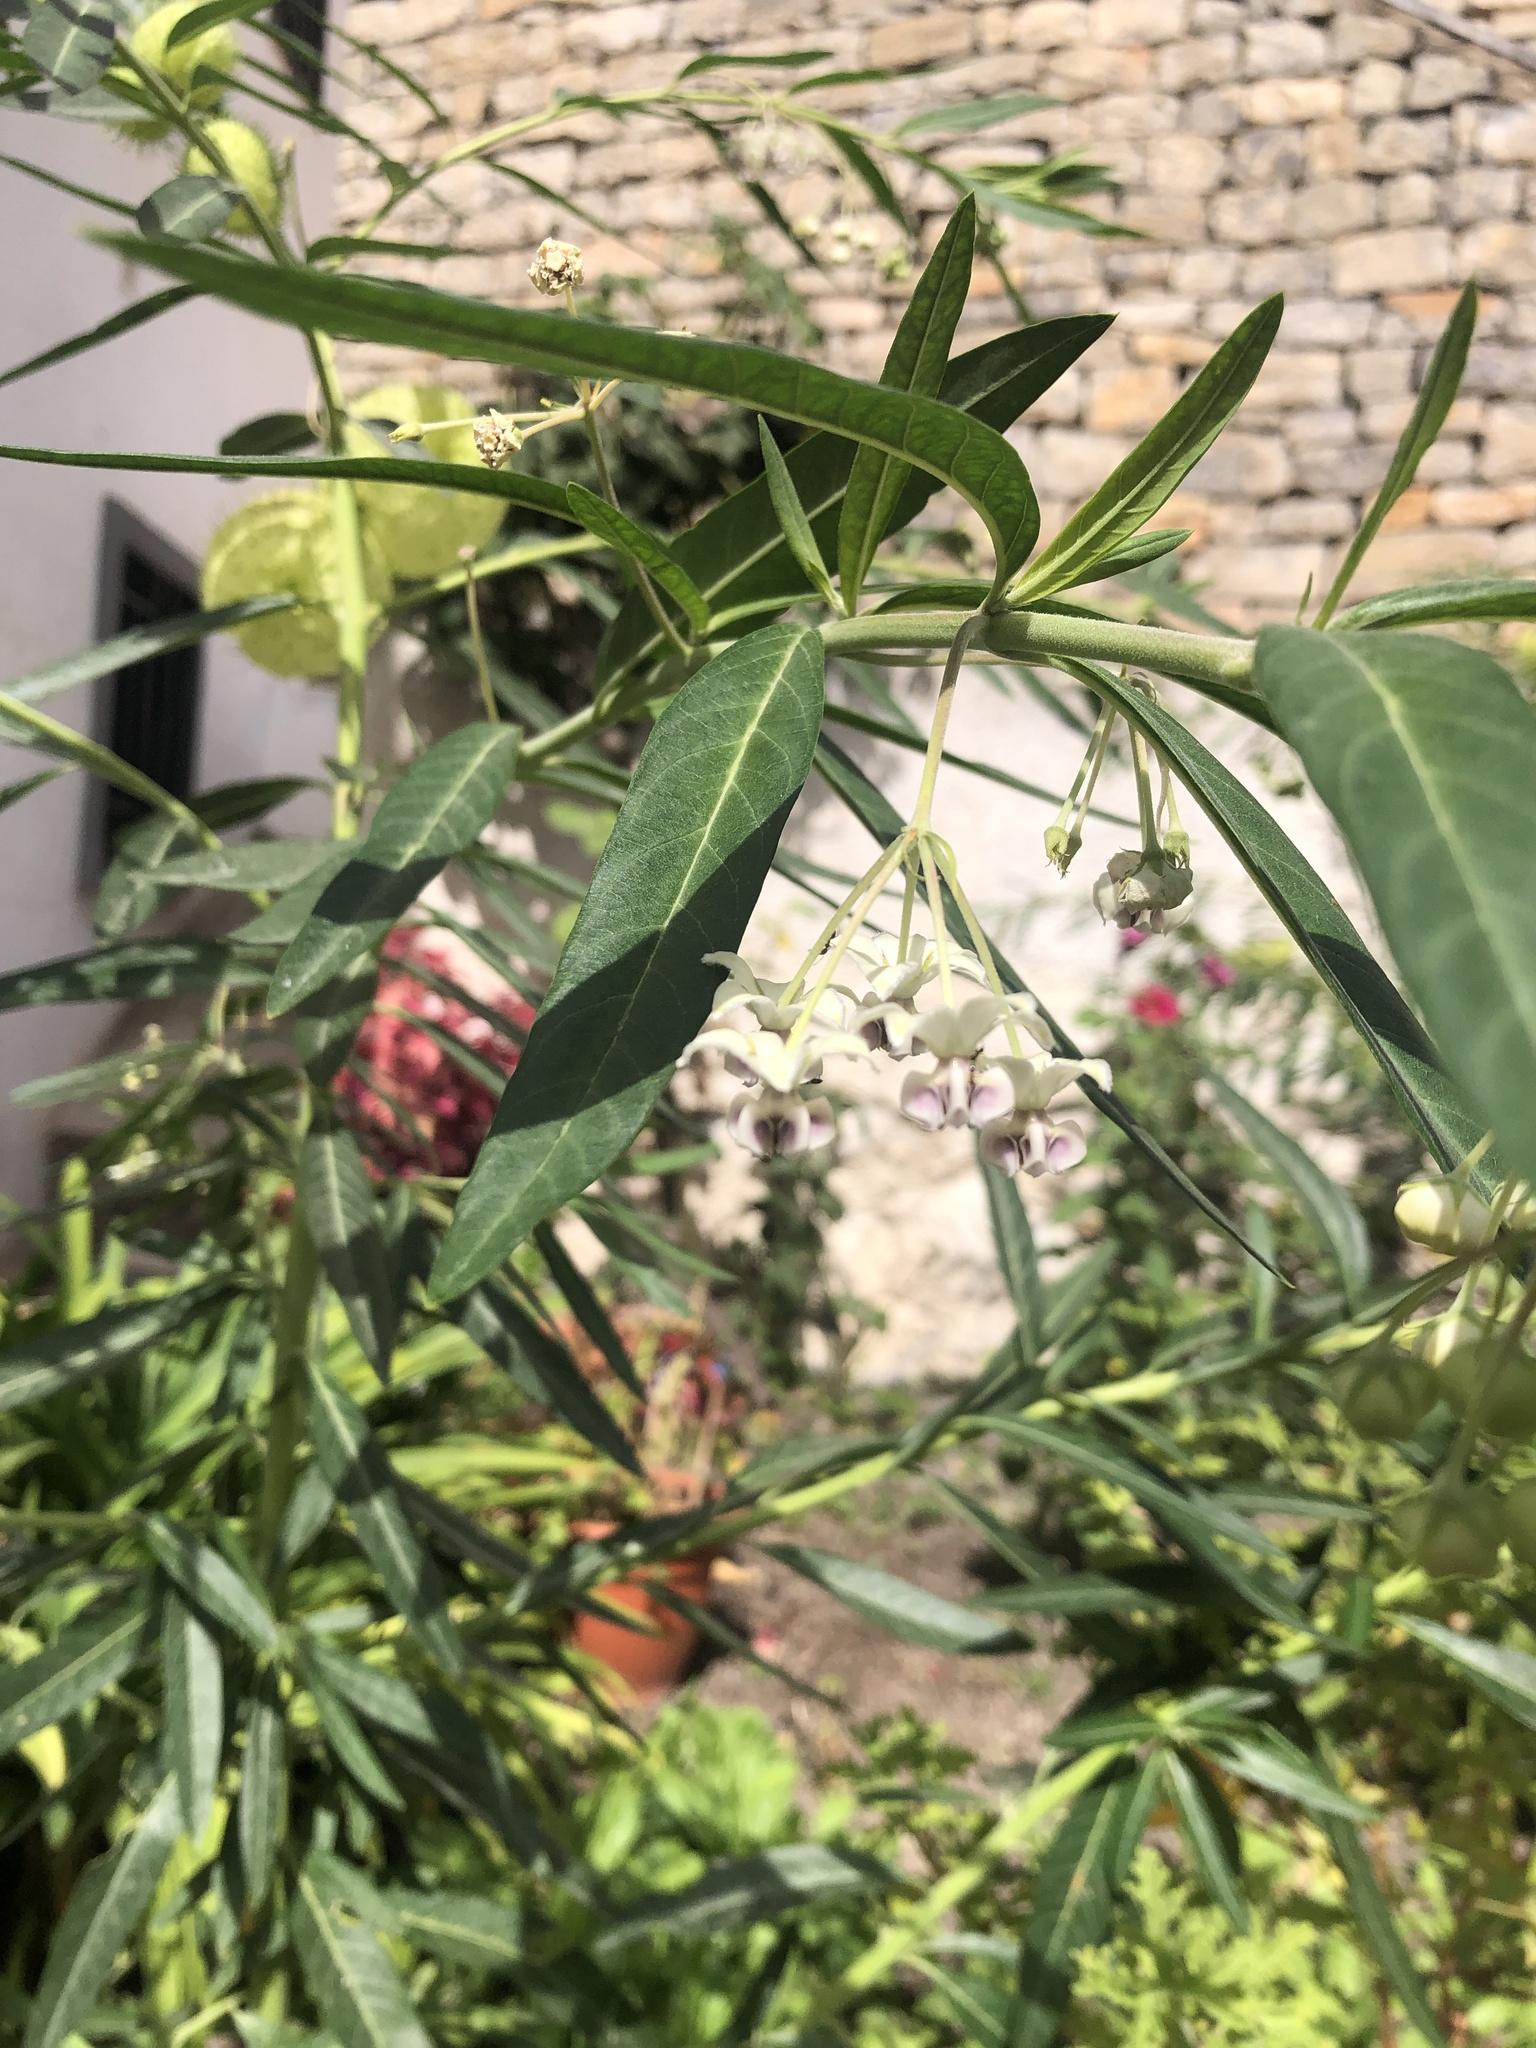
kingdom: Plantae
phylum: Tracheophyta
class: Magnoliopsida
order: Gentianales
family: Apocynaceae
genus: Gomphocarpus
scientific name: Gomphocarpus physocarpus
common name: Balloon cotton bush
